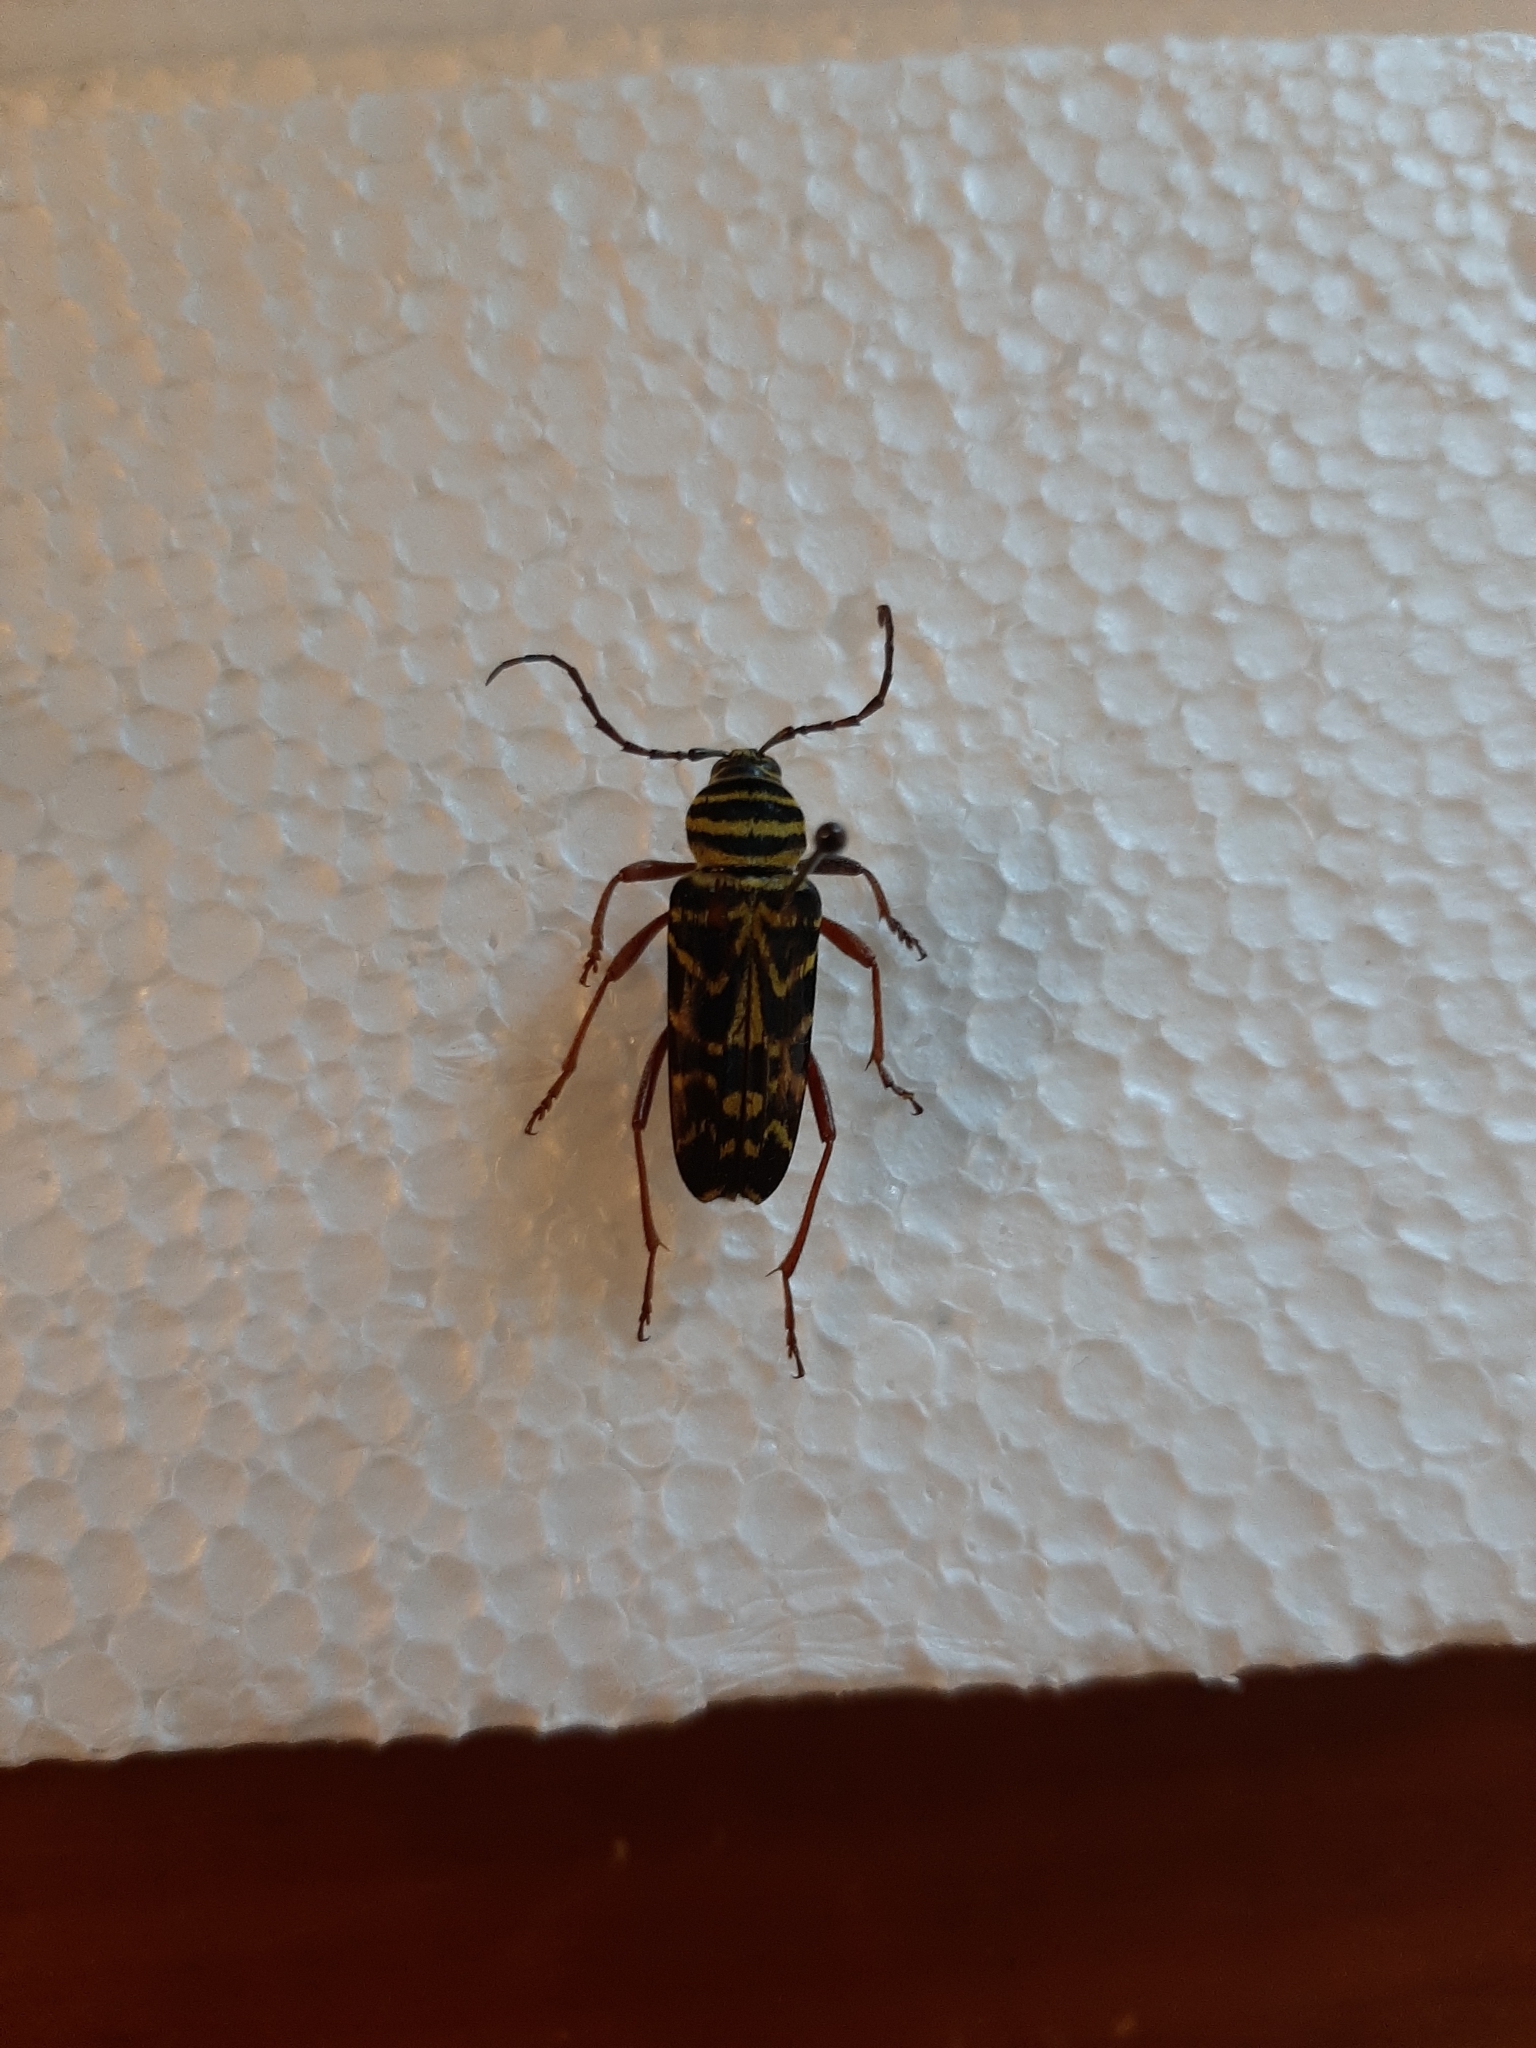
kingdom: Animalia
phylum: Arthropoda
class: Insecta
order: Coleoptera
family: Cerambycidae
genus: Megacyllene
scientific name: Megacyllene robiniae
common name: Locust borer
